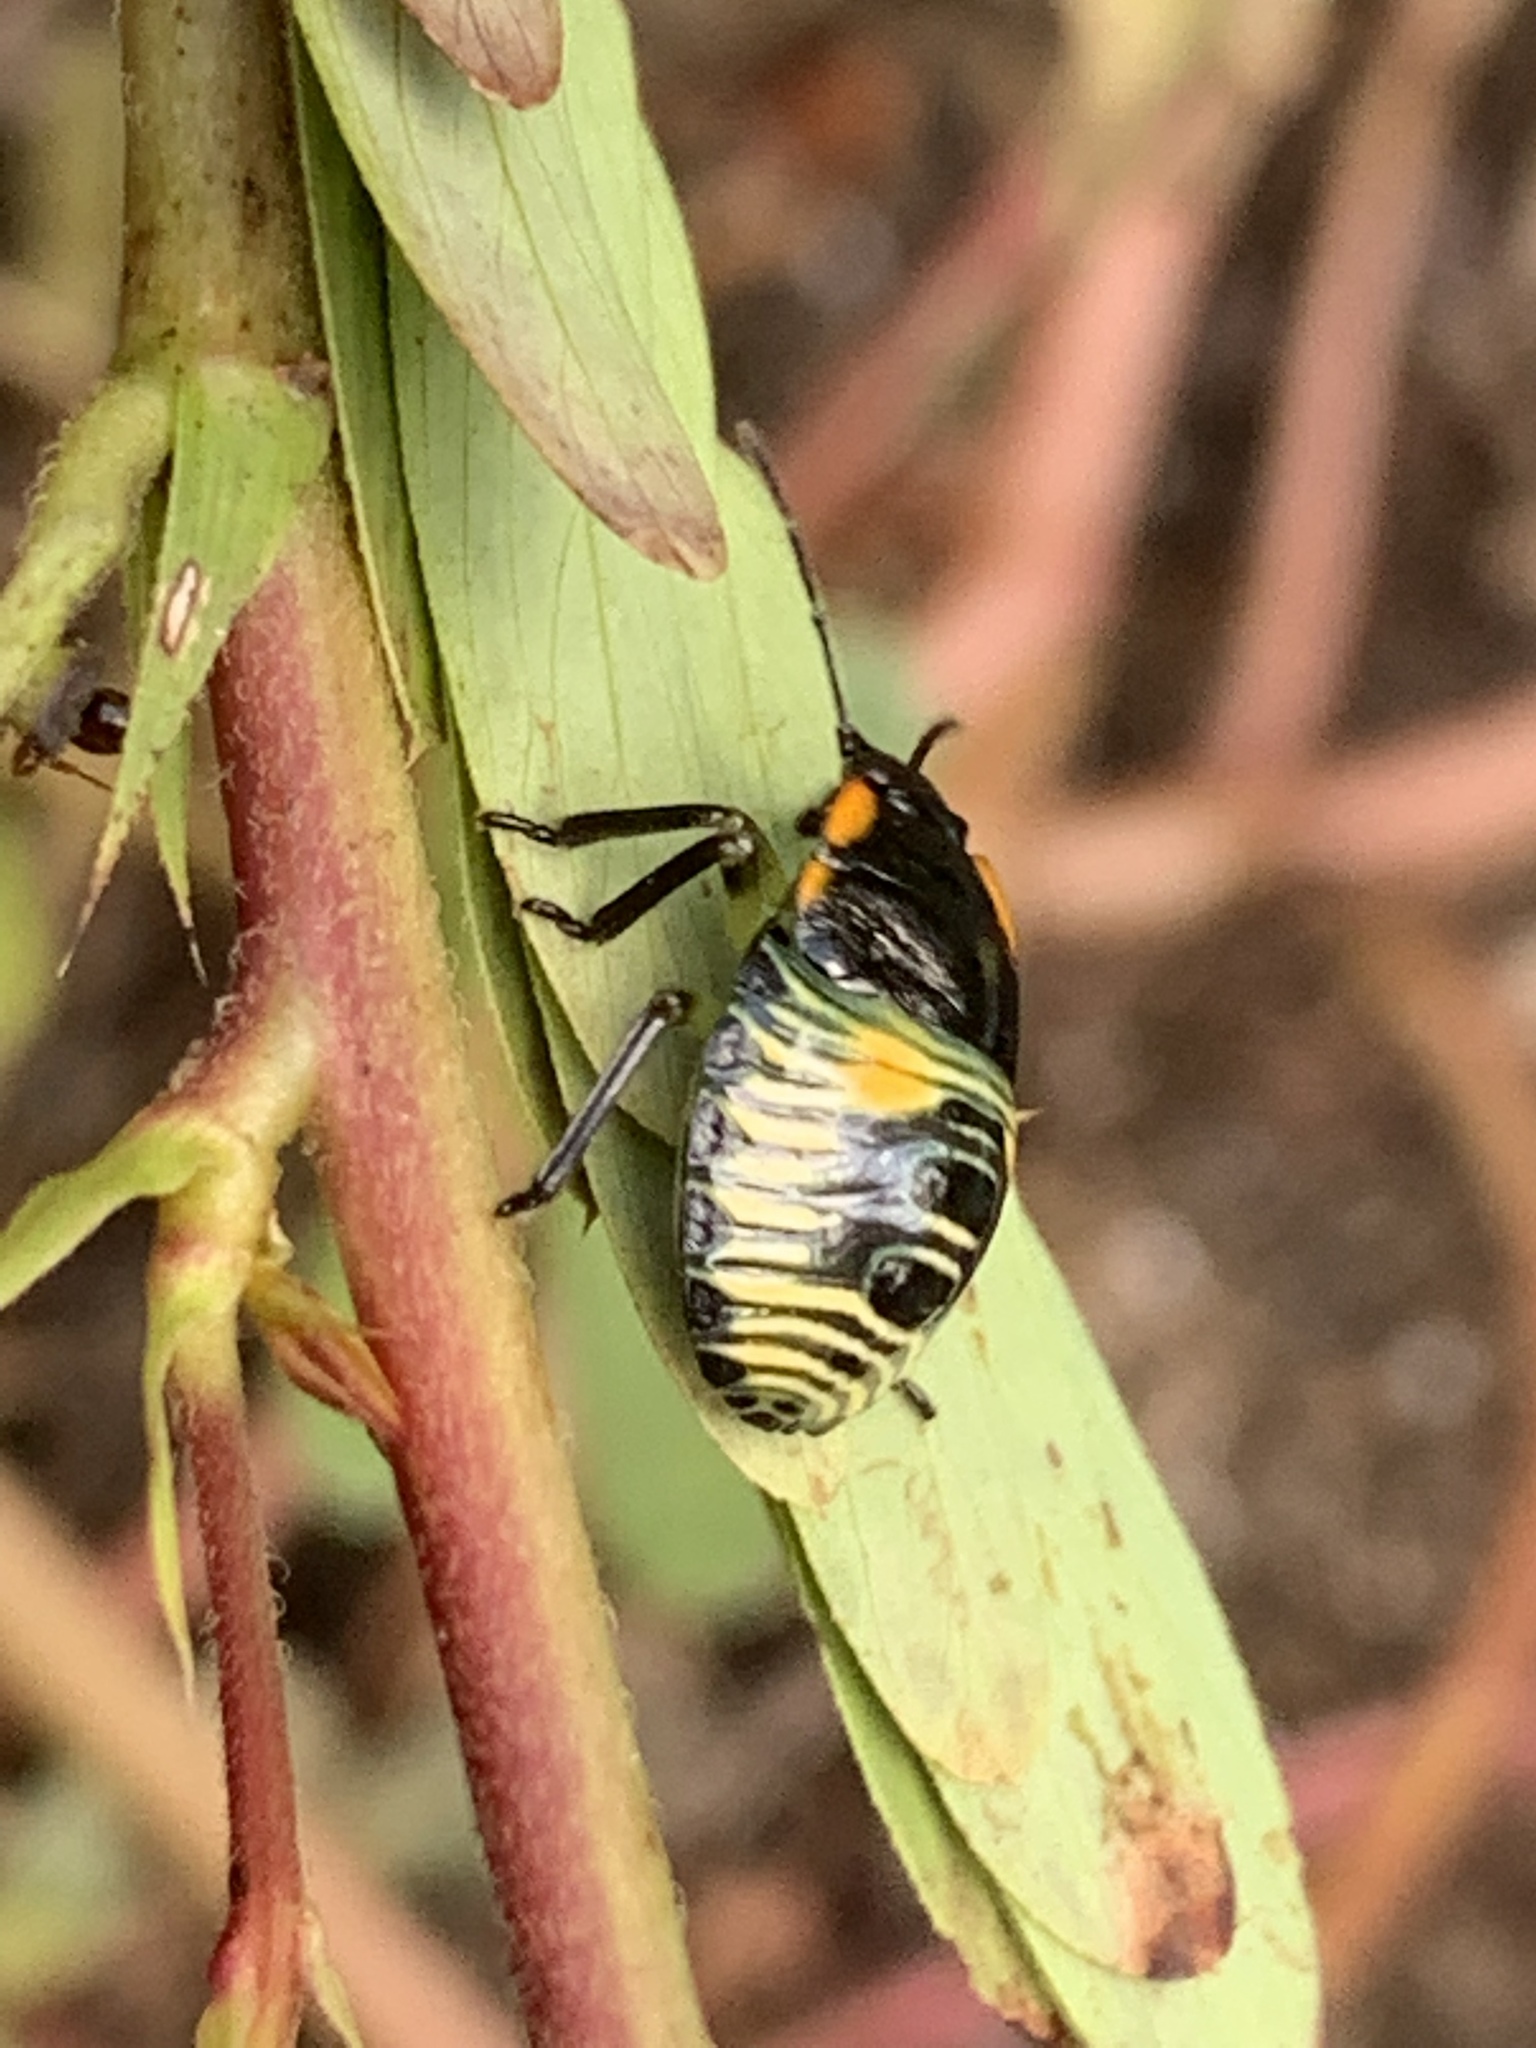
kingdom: Animalia
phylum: Arthropoda
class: Insecta
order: Hemiptera
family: Pentatomidae
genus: Chinavia
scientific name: Chinavia hilaris
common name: Green stink bug
